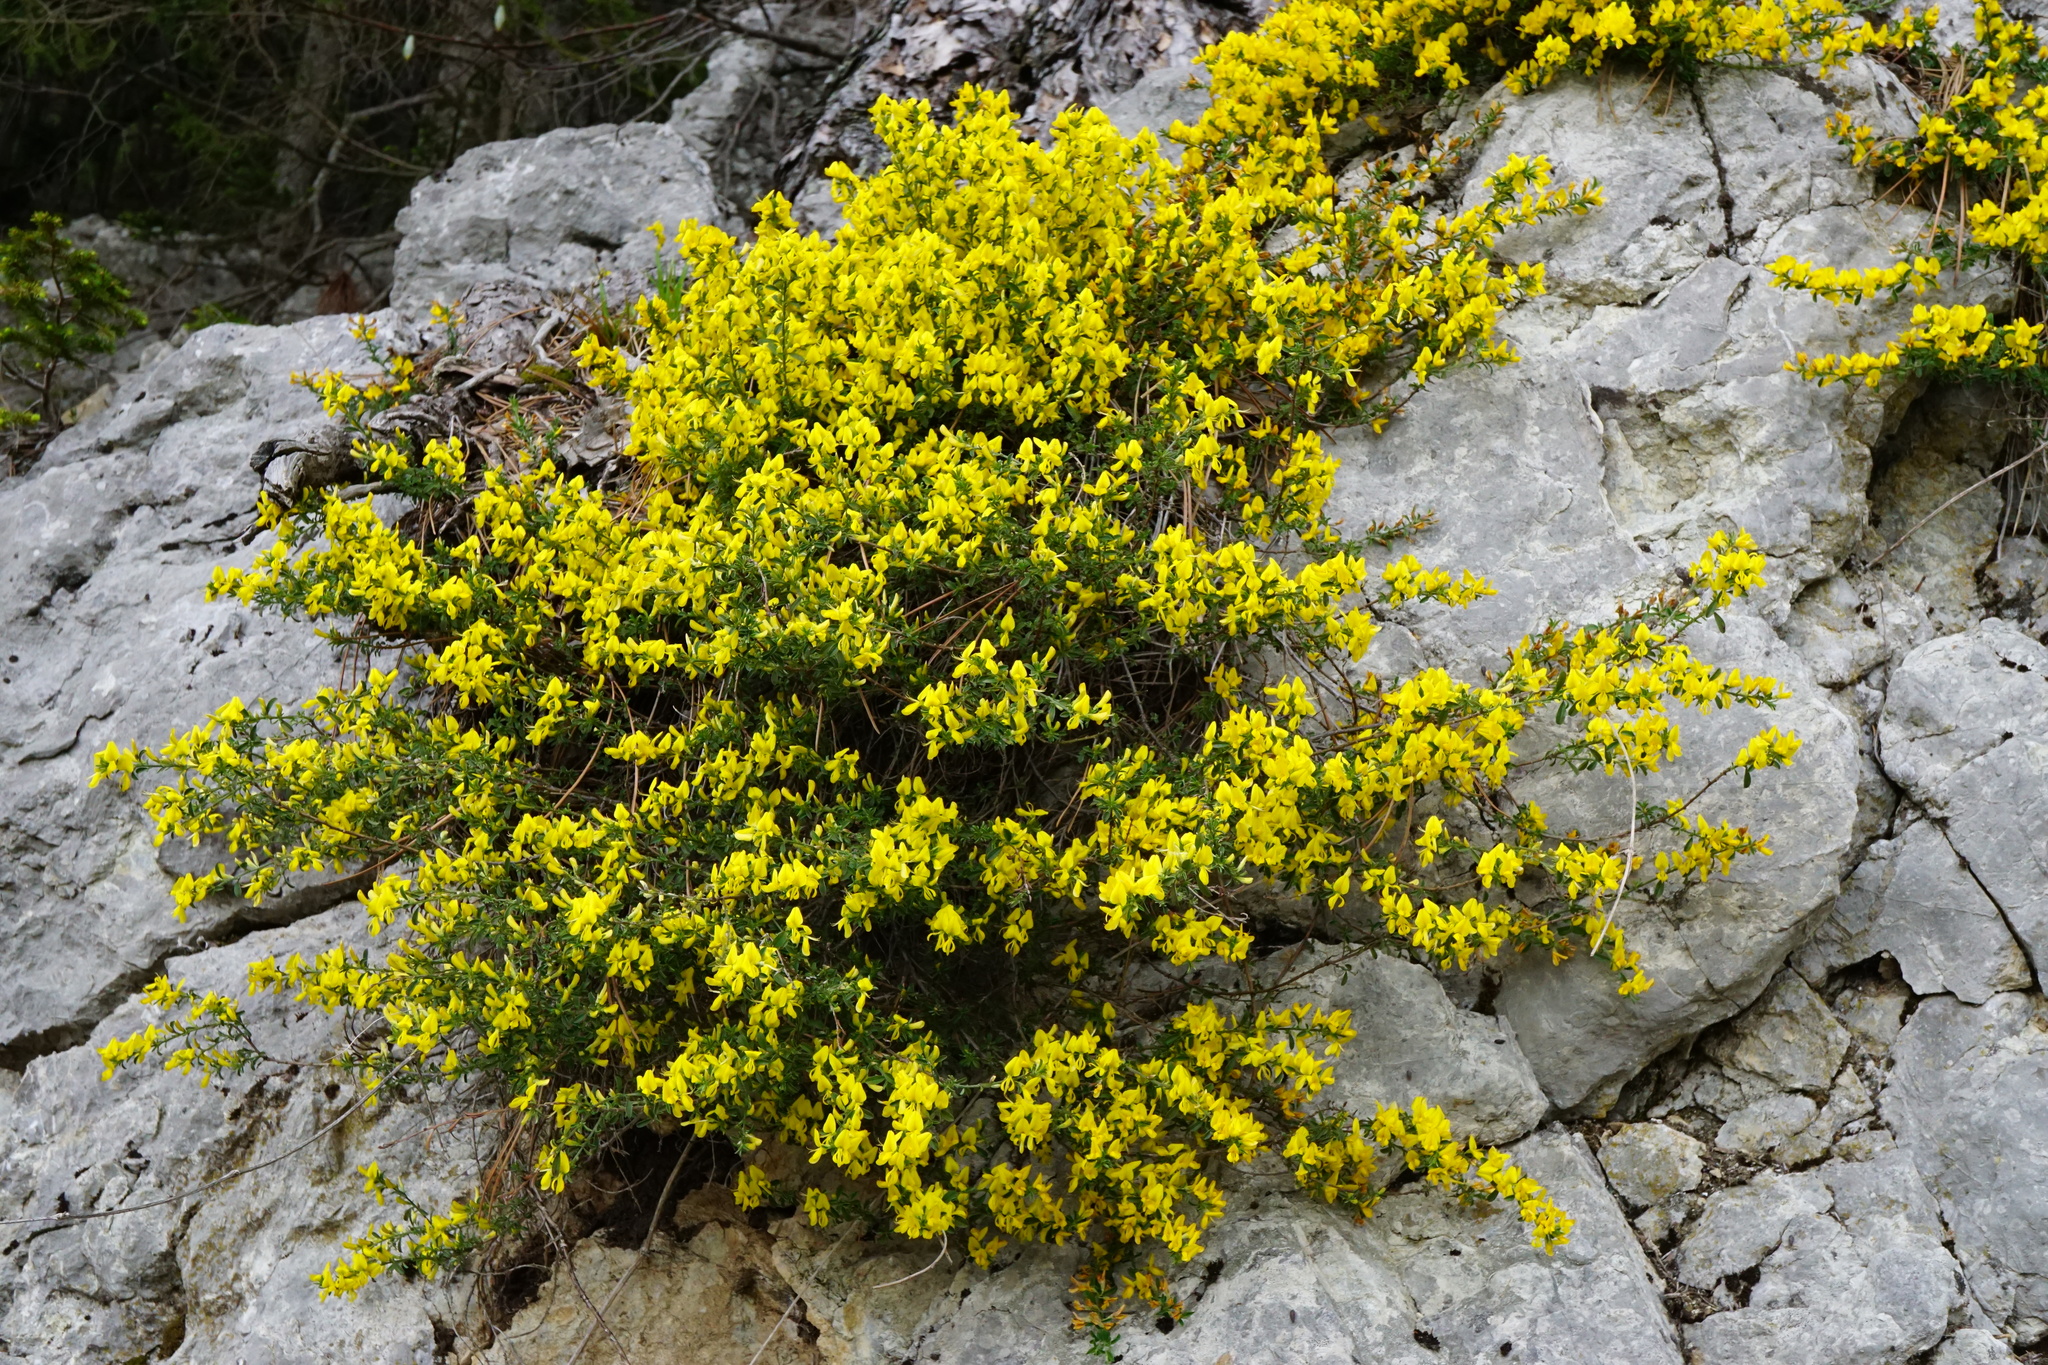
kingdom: Plantae
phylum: Tracheophyta
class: Magnoliopsida
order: Fabales
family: Fabaceae
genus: Genista
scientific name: Genista pilosa
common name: Hairy greenweed
